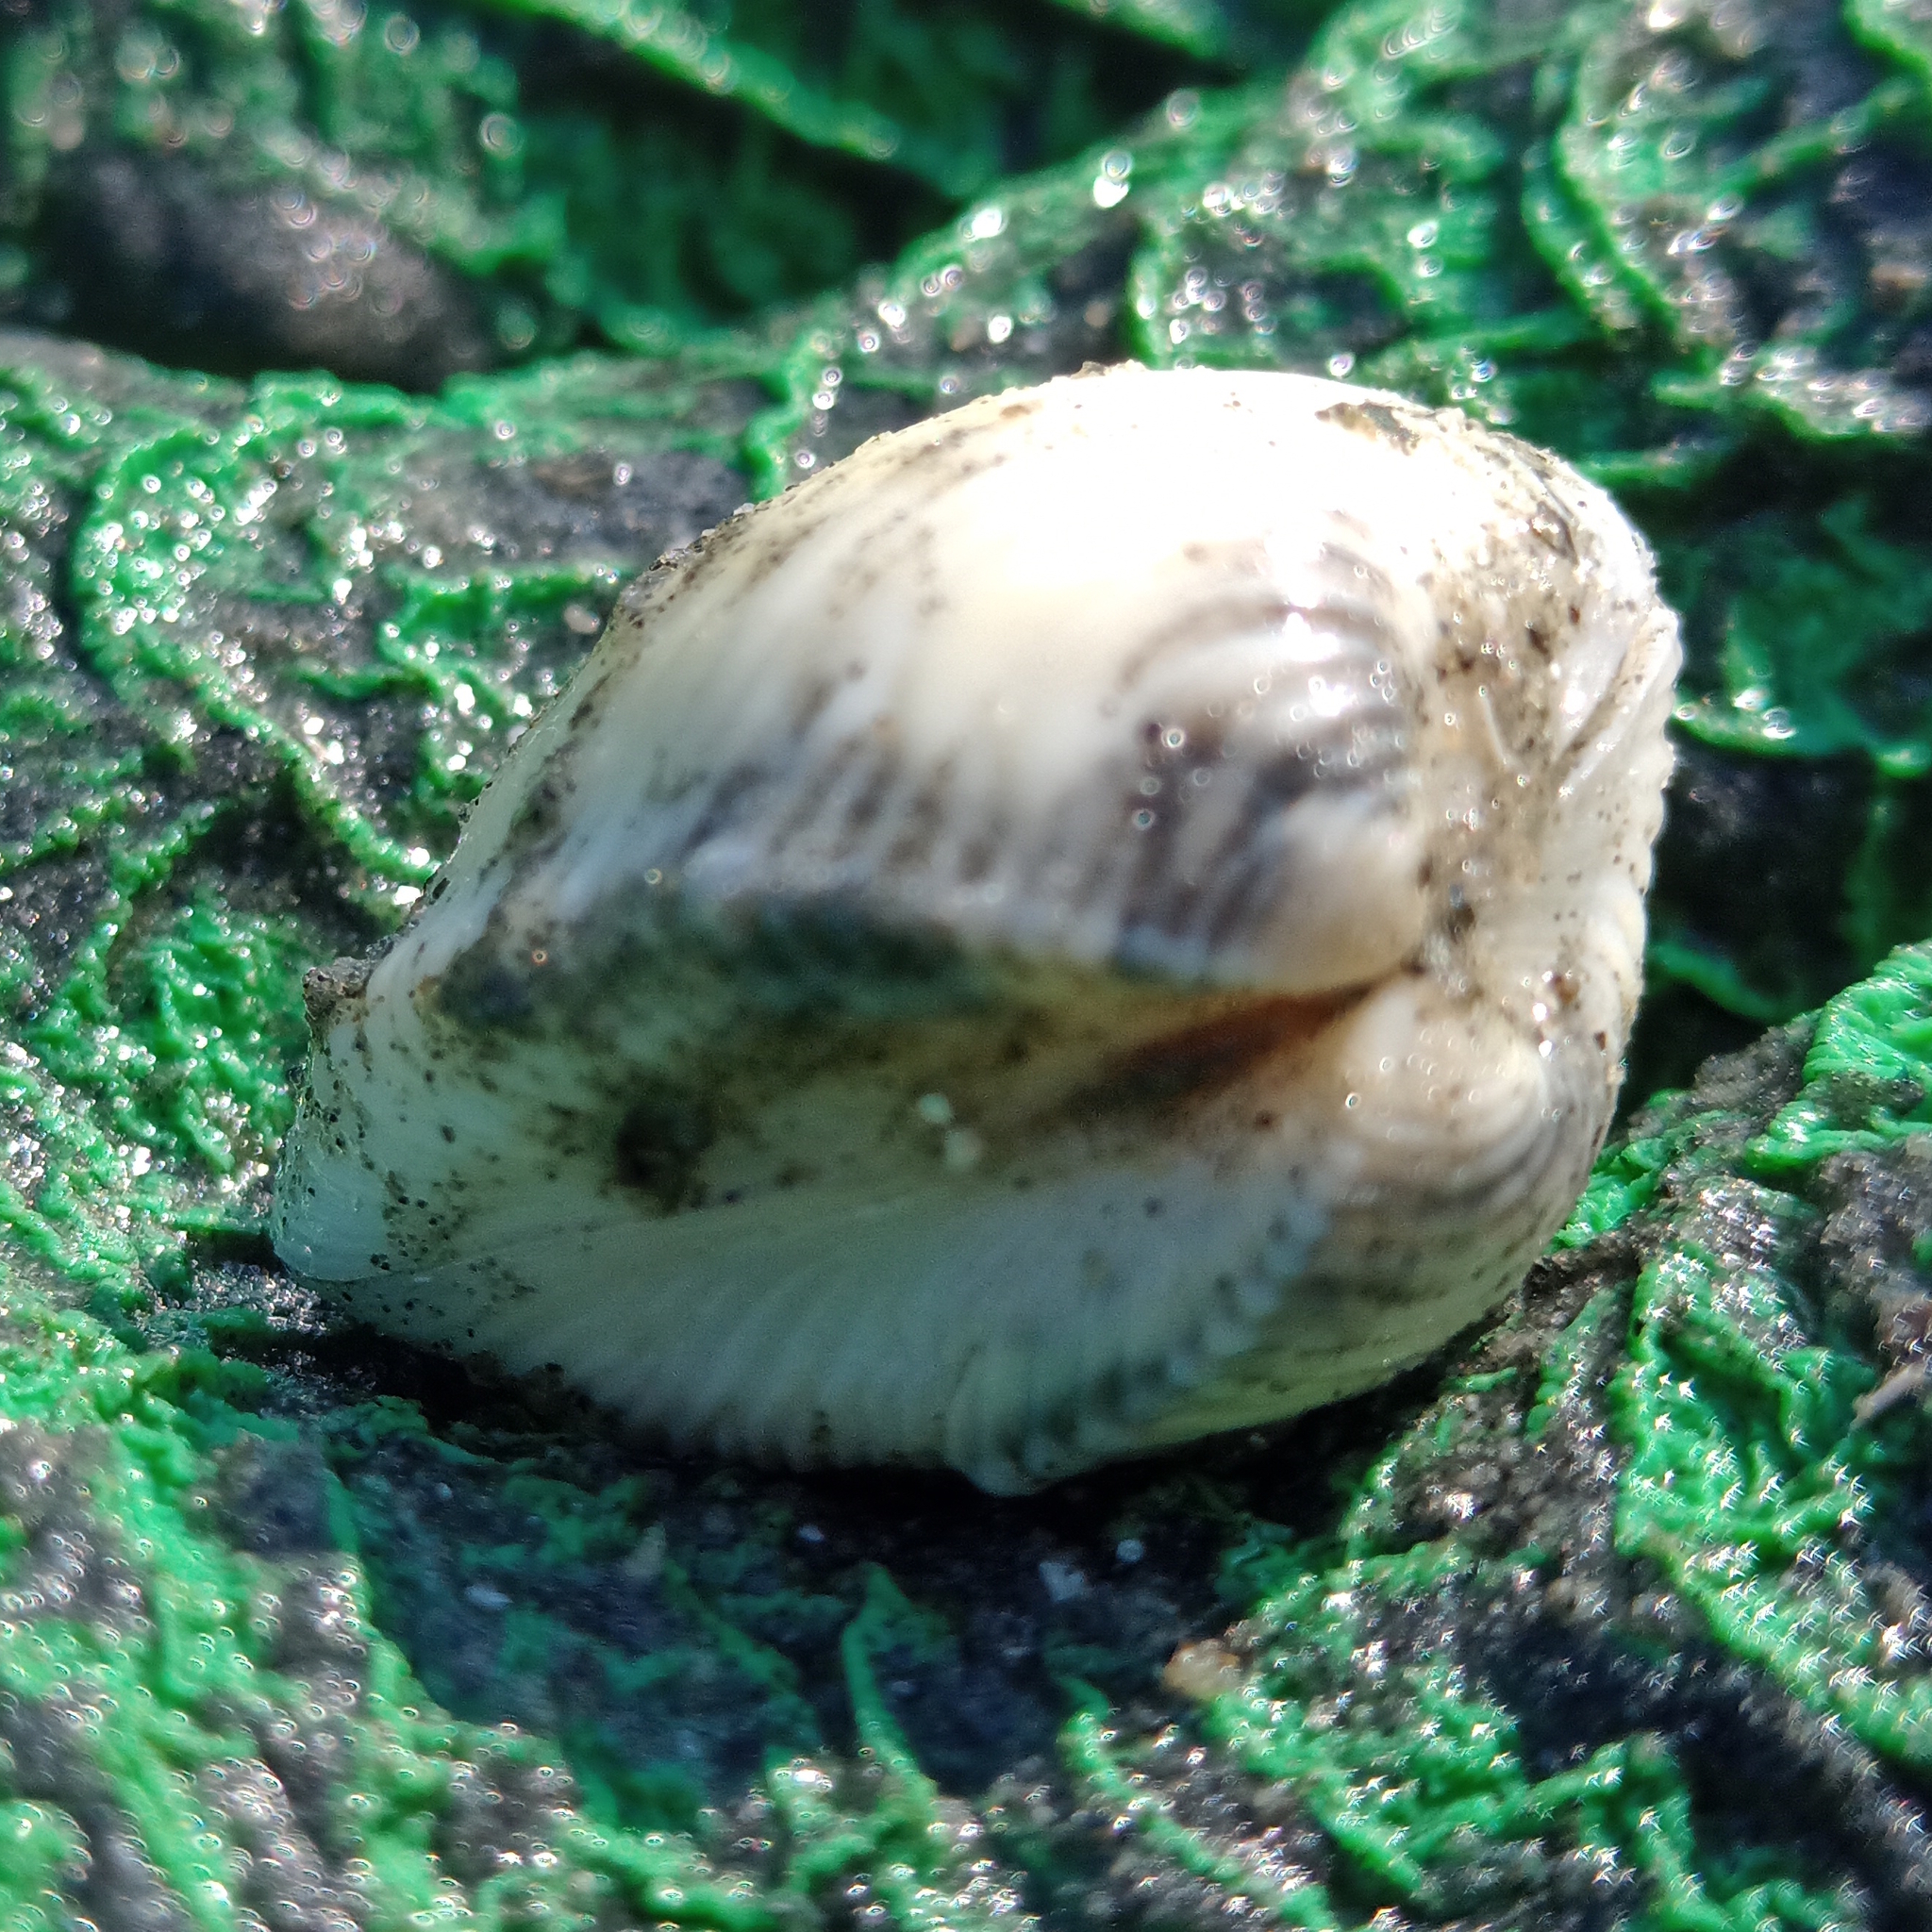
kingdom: Animalia
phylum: Mollusca
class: Bivalvia
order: Venerida
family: Veneridae
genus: Anomalocardia
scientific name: Anomalocardia flexuosa
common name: Carib pointed venus
